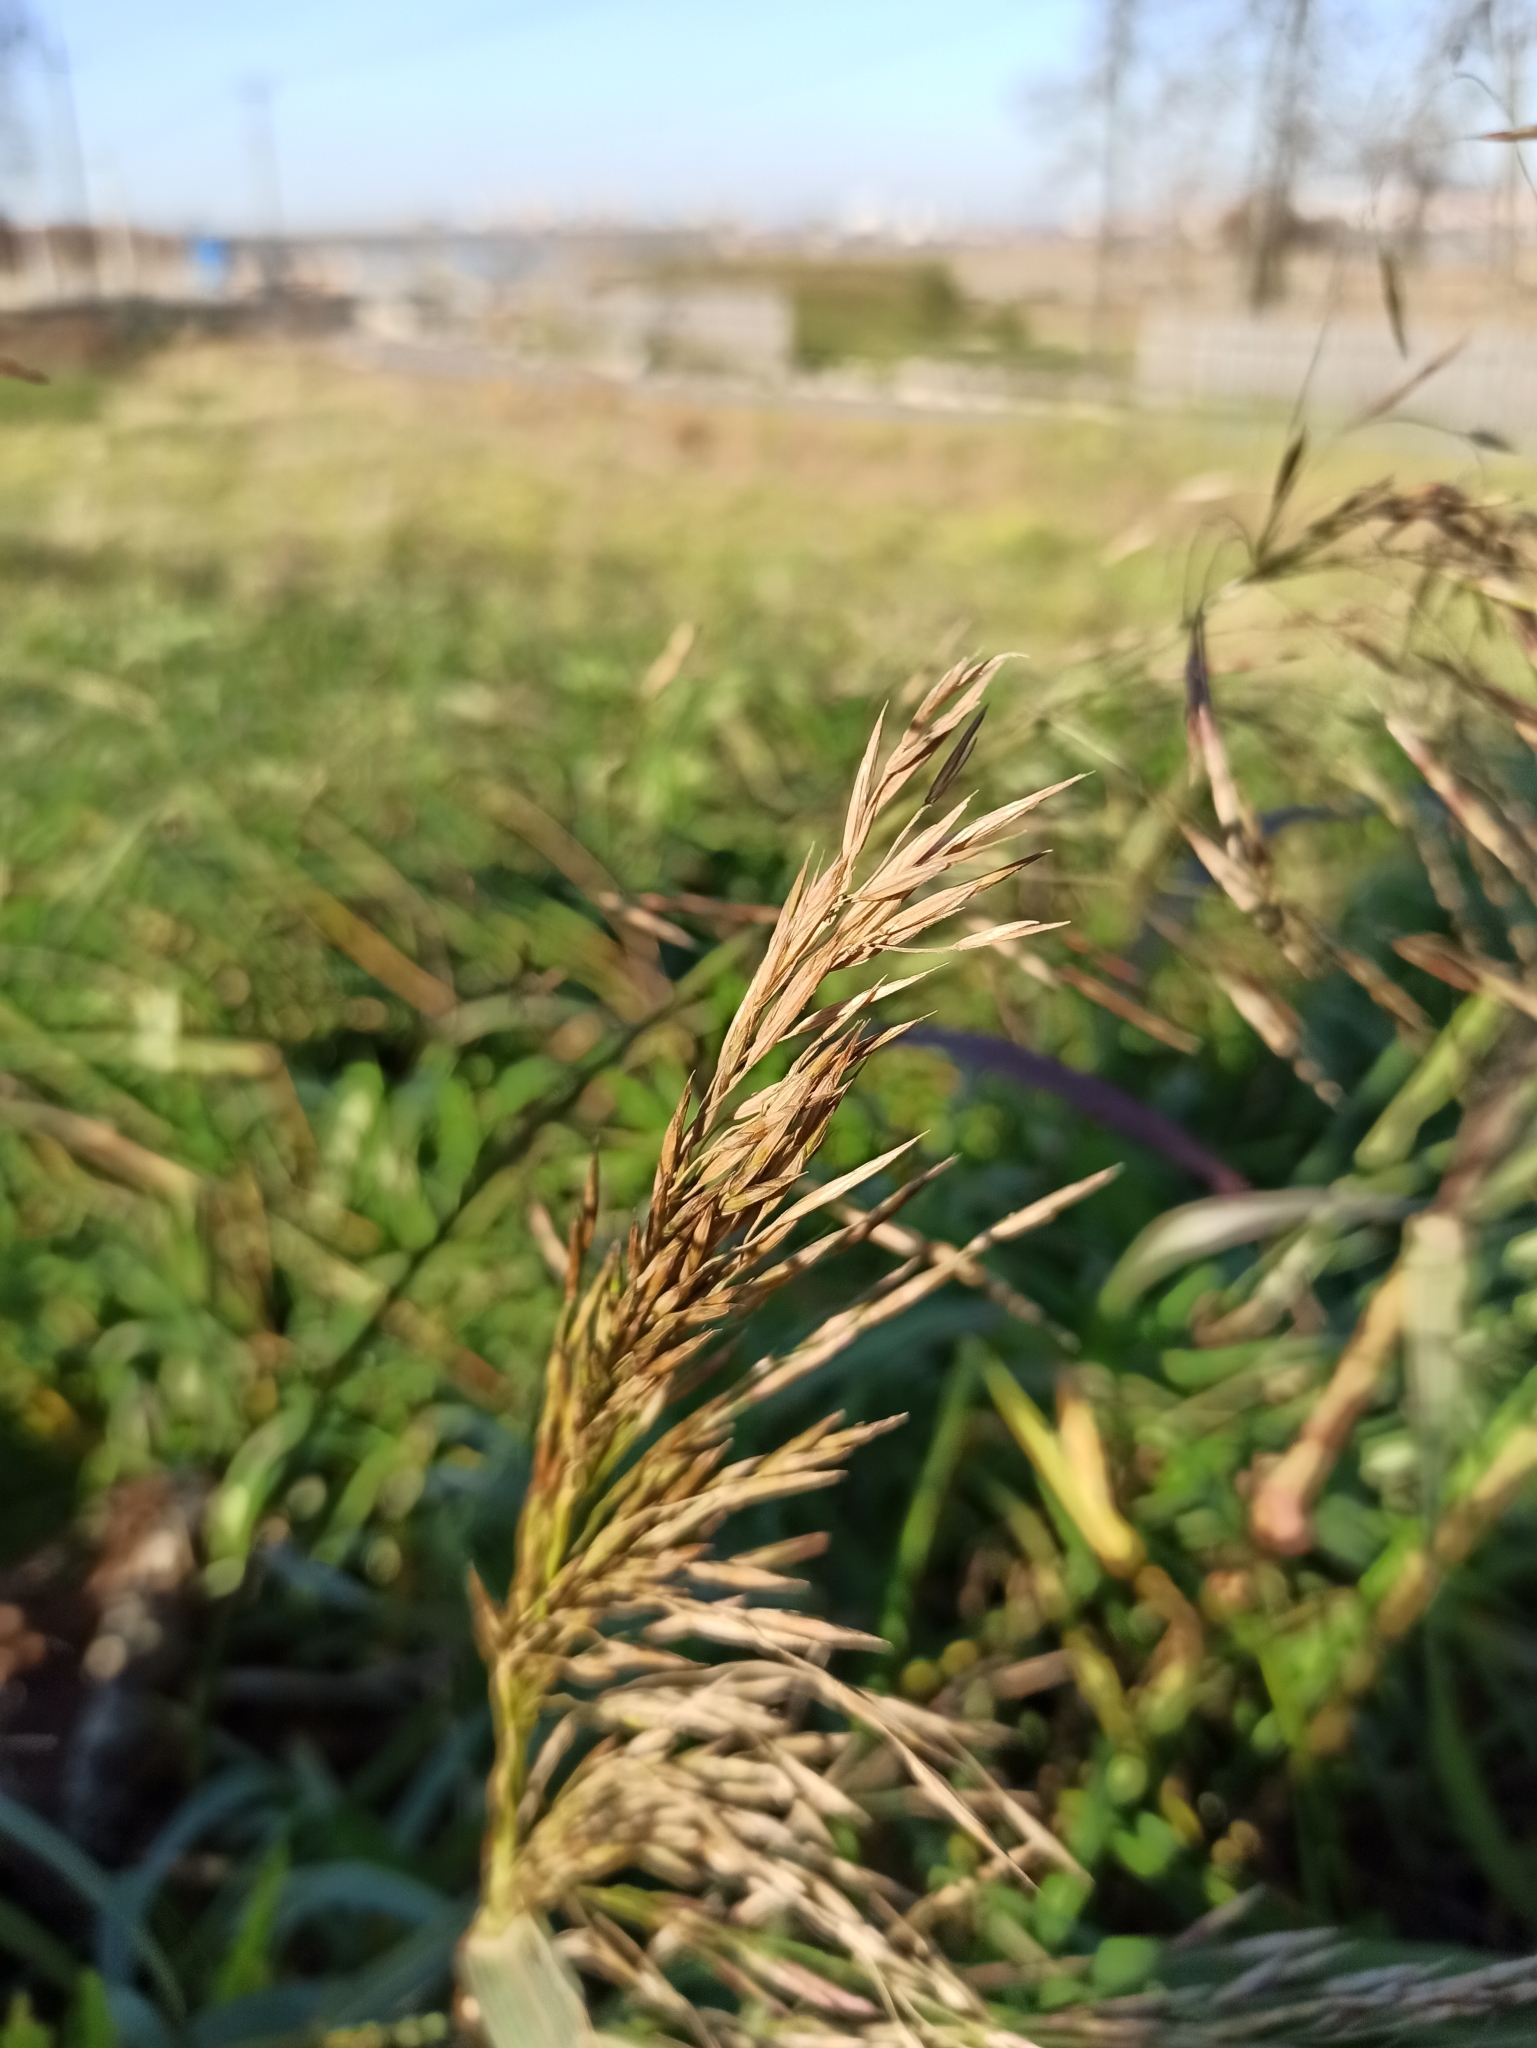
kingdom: Plantae
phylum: Tracheophyta
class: Liliopsida
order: Poales
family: Poaceae
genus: Bromus
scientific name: Bromus inermis
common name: Smooth brome
